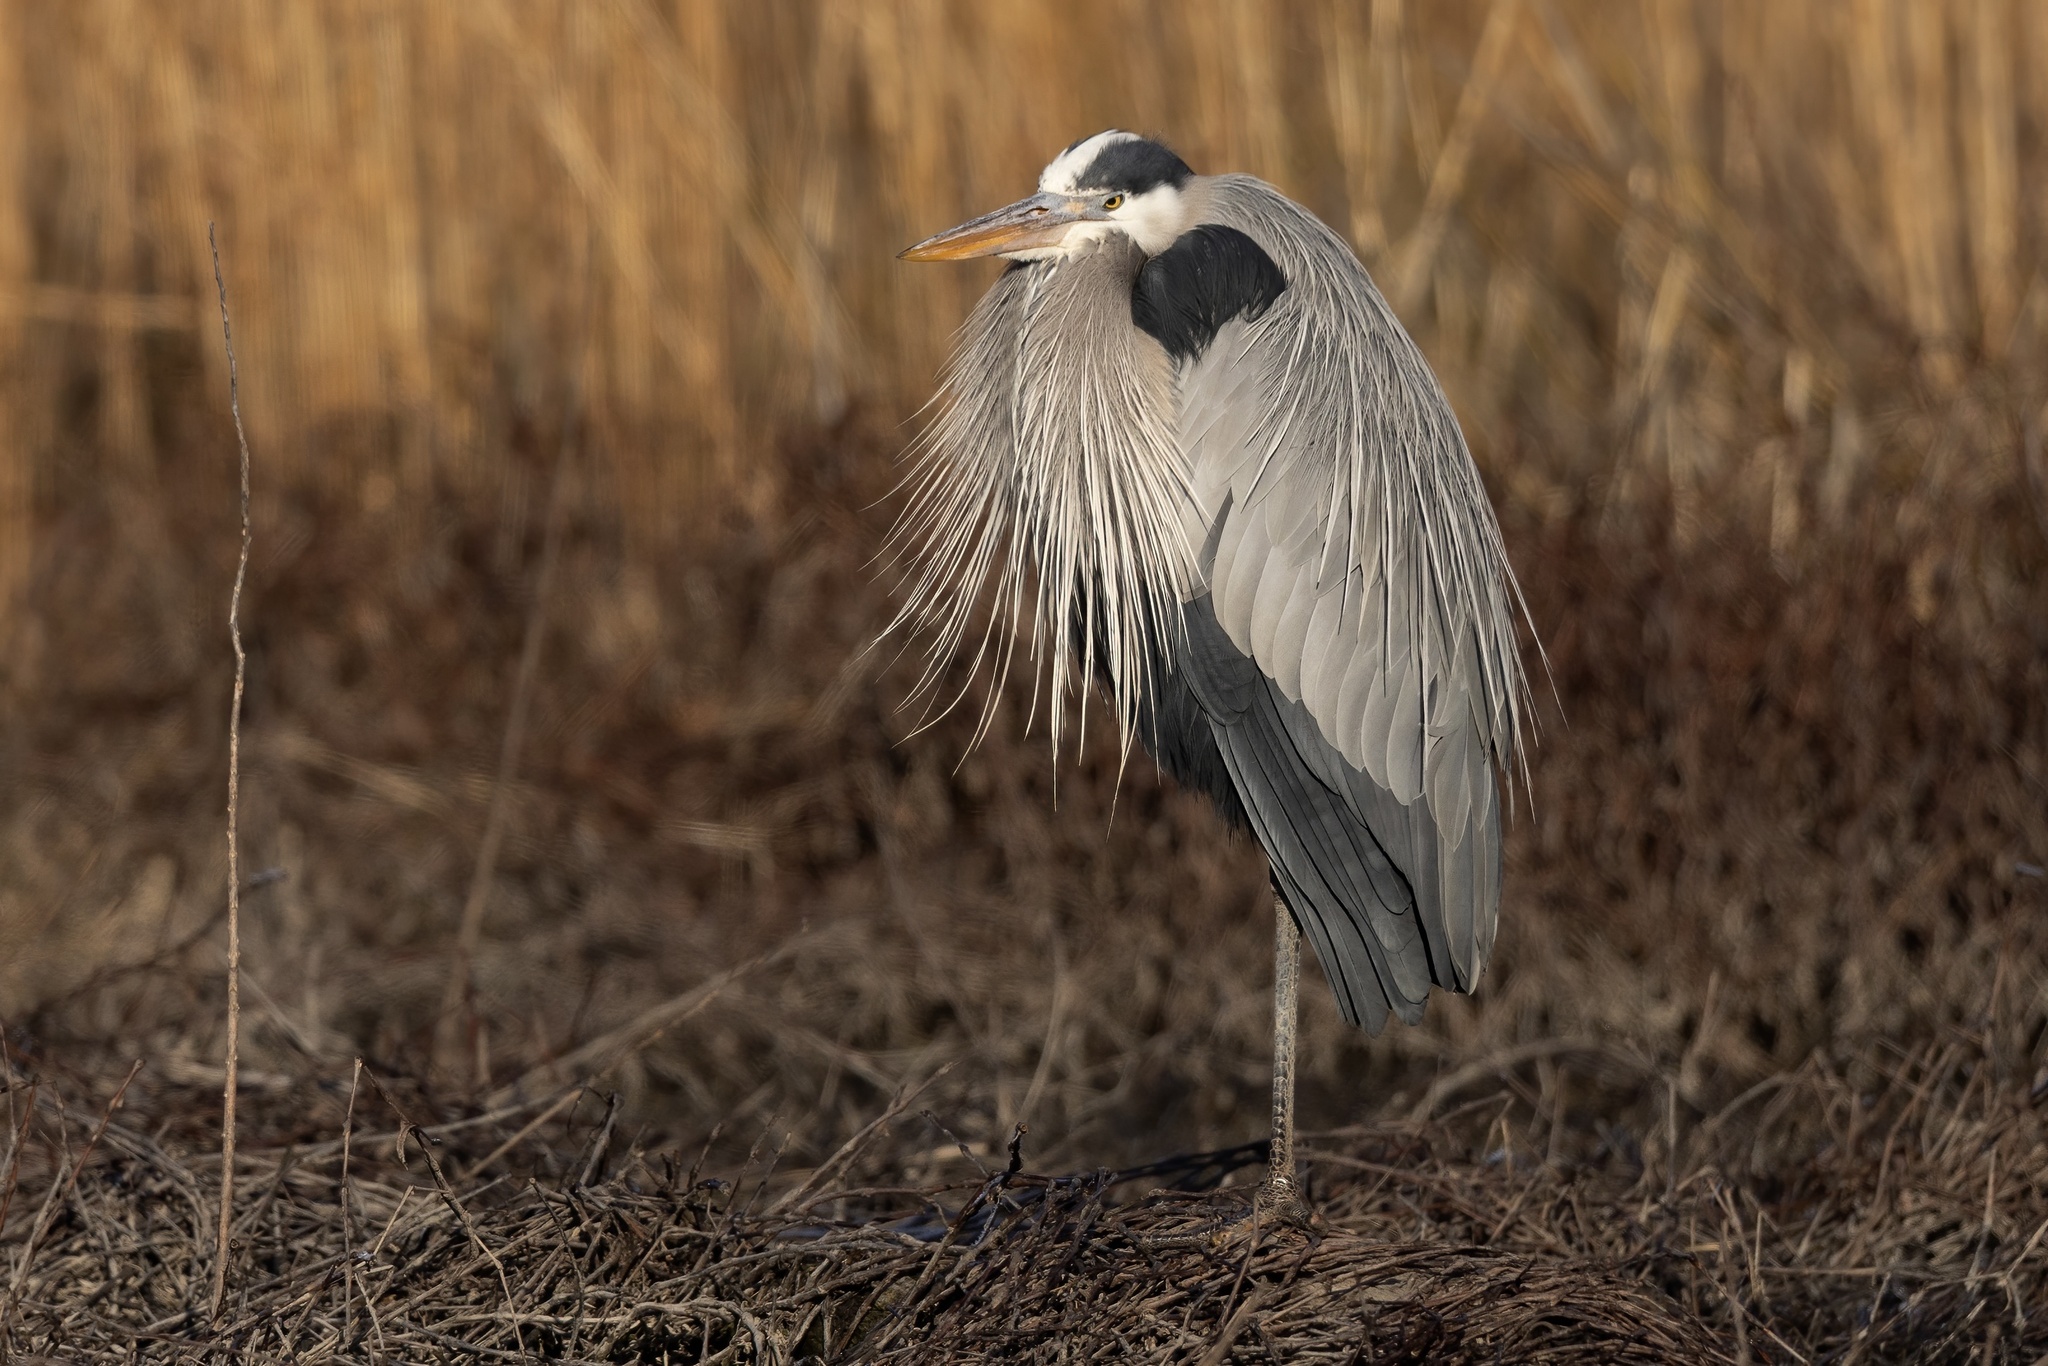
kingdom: Animalia
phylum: Chordata
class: Aves
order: Pelecaniformes
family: Ardeidae
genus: Ardea
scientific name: Ardea herodias
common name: Great blue heron
